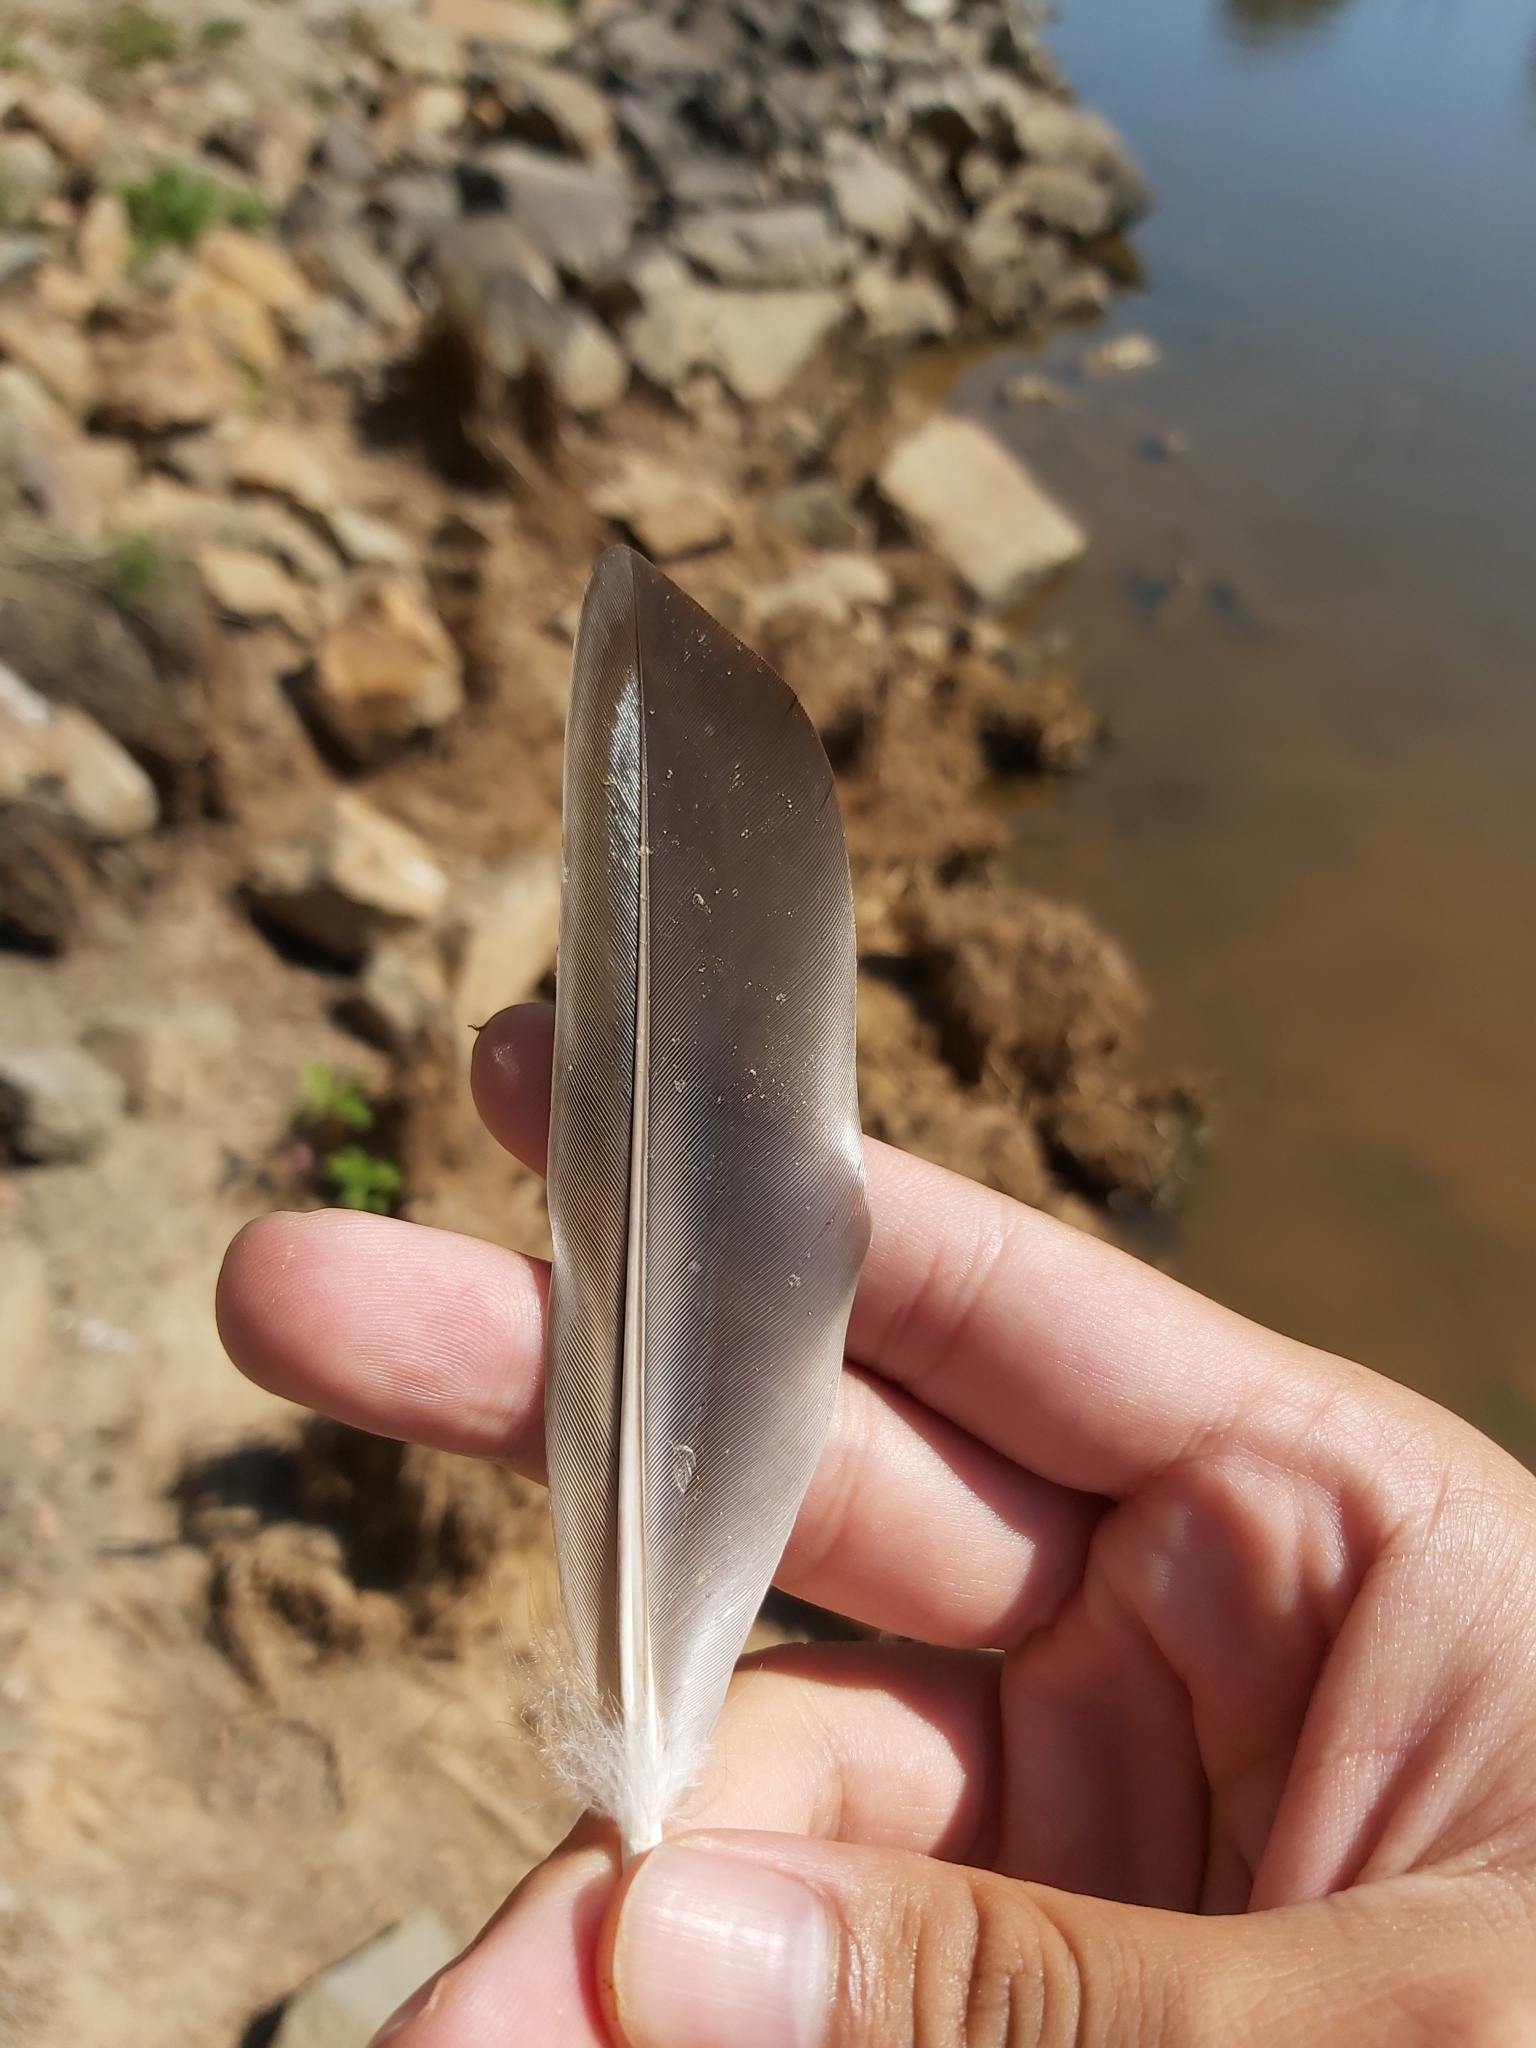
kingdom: Animalia
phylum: Chordata
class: Aves
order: Anseriformes
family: Anatidae
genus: Anas
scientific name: Anas superciliosa
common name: Pacific black duck
